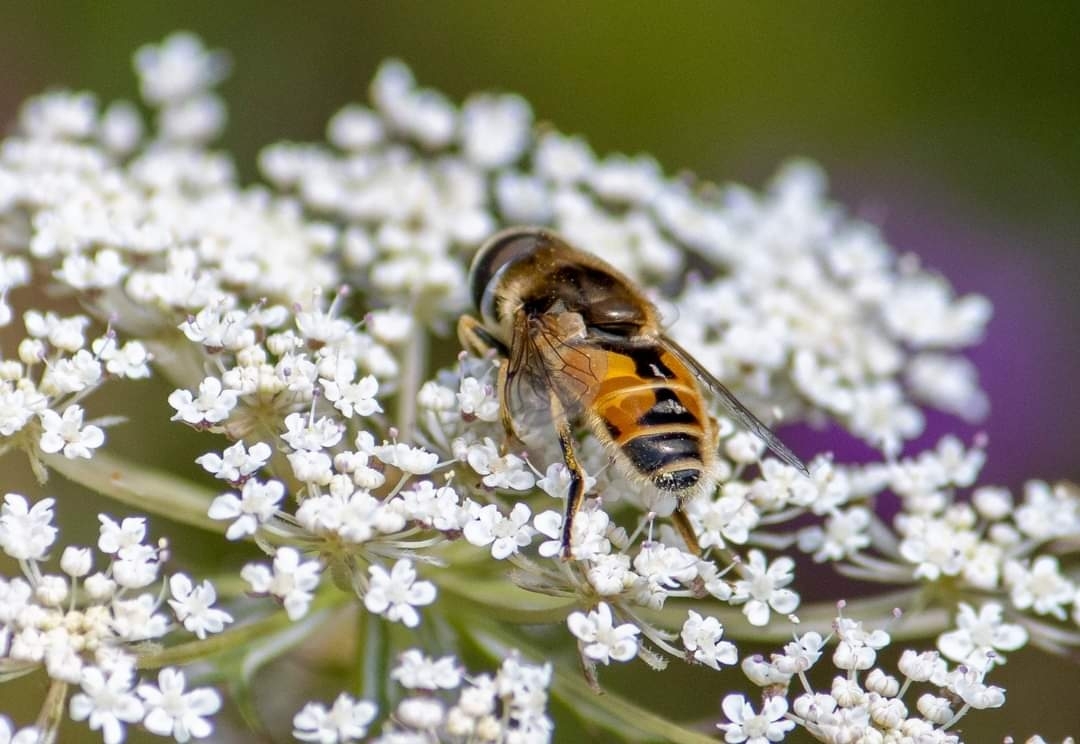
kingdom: Animalia
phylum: Arthropoda
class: Insecta
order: Diptera
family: Syrphidae
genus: Eristalis
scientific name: Eristalis arbustorum
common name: Hover fly
